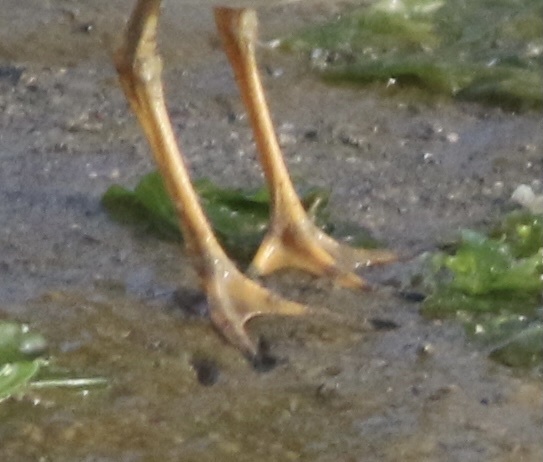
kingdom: Animalia
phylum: Chordata
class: Aves
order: Charadriiformes
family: Charadriidae
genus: Charadrius
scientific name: Charadrius semipalmatus
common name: Semipalmated plover
